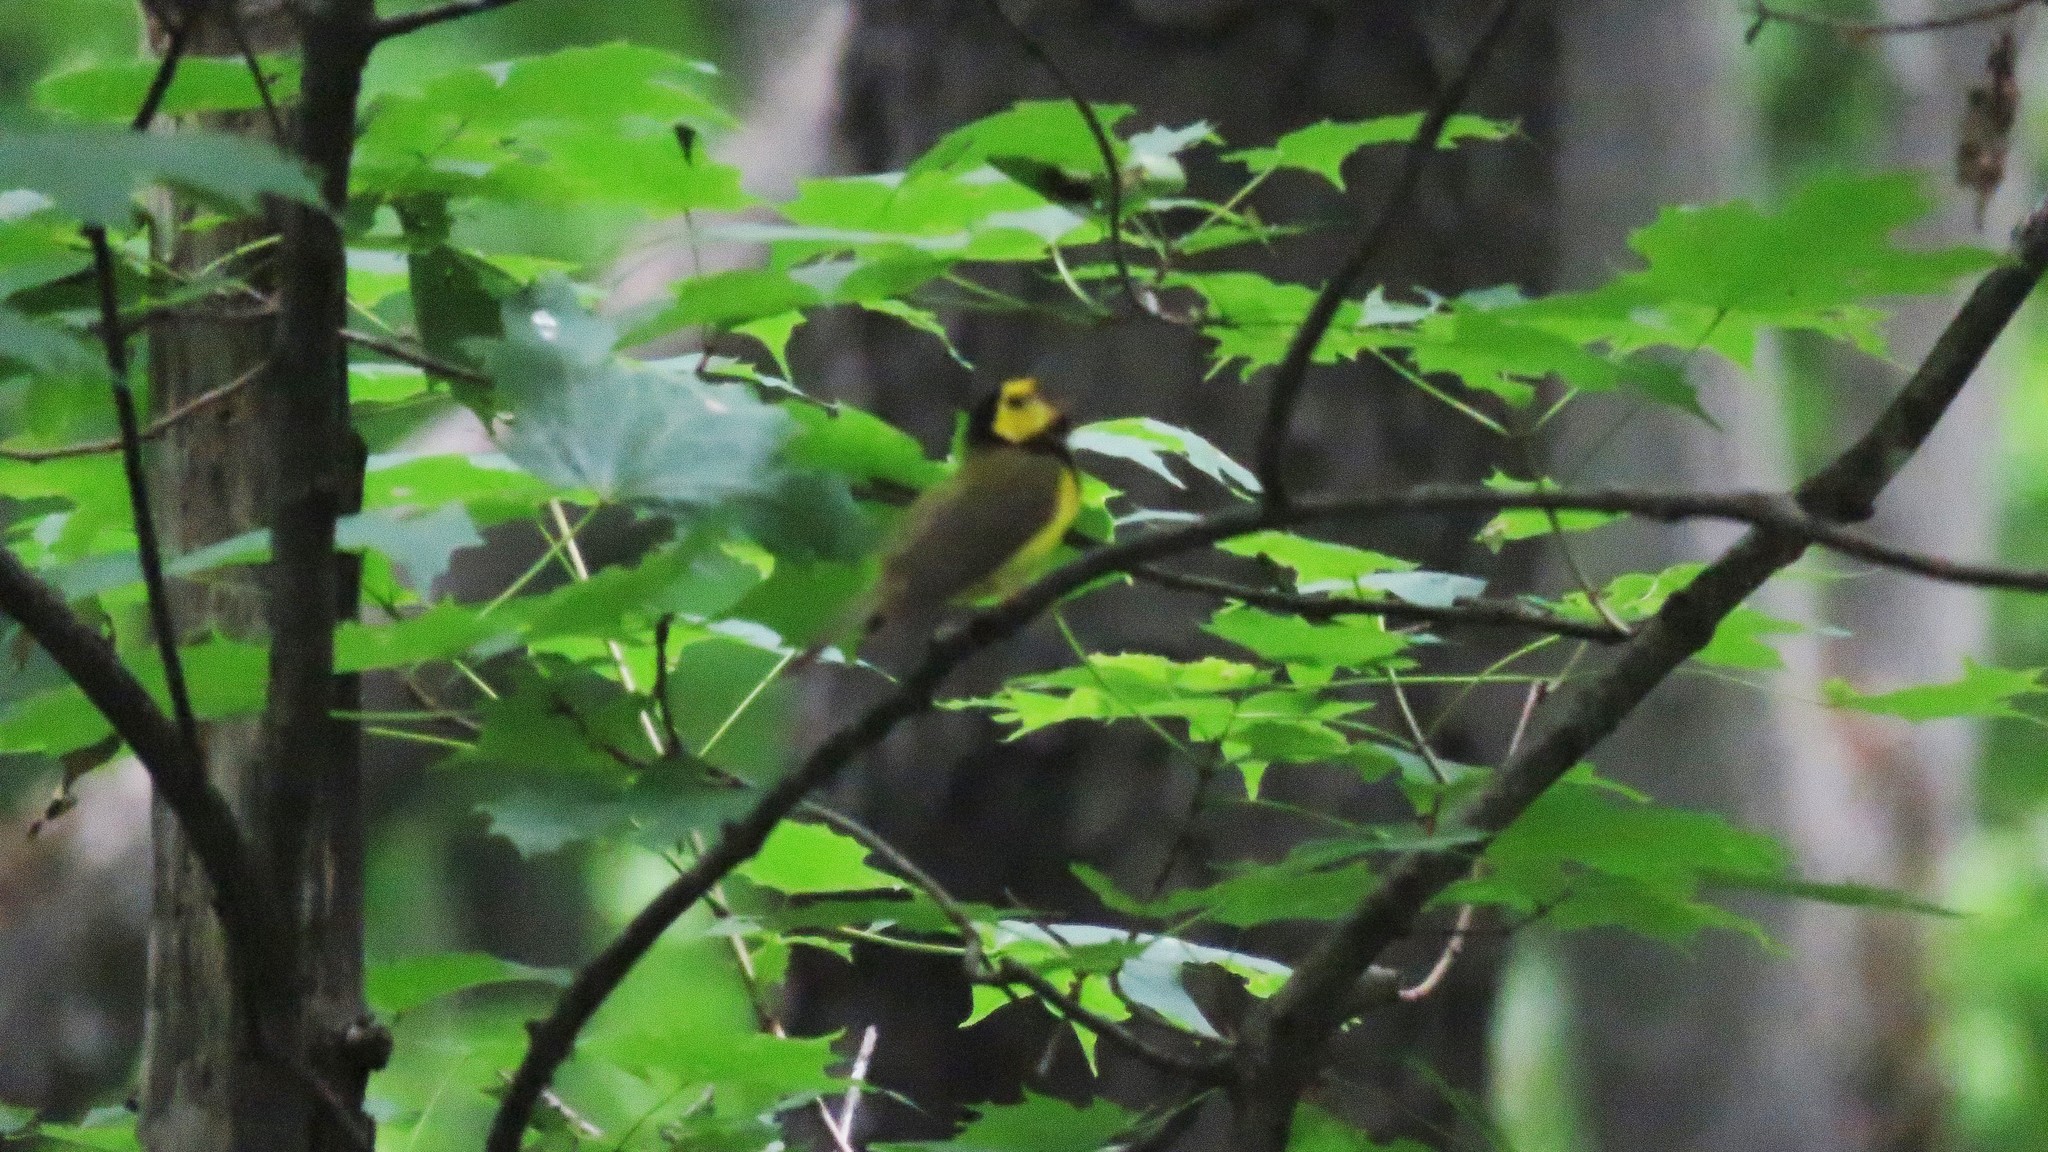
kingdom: Animalia
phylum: Chordata
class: Aves
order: Passeriformes
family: Parulidae
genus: Setophaga
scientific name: Setophaga citrina
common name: Hooded warbler
